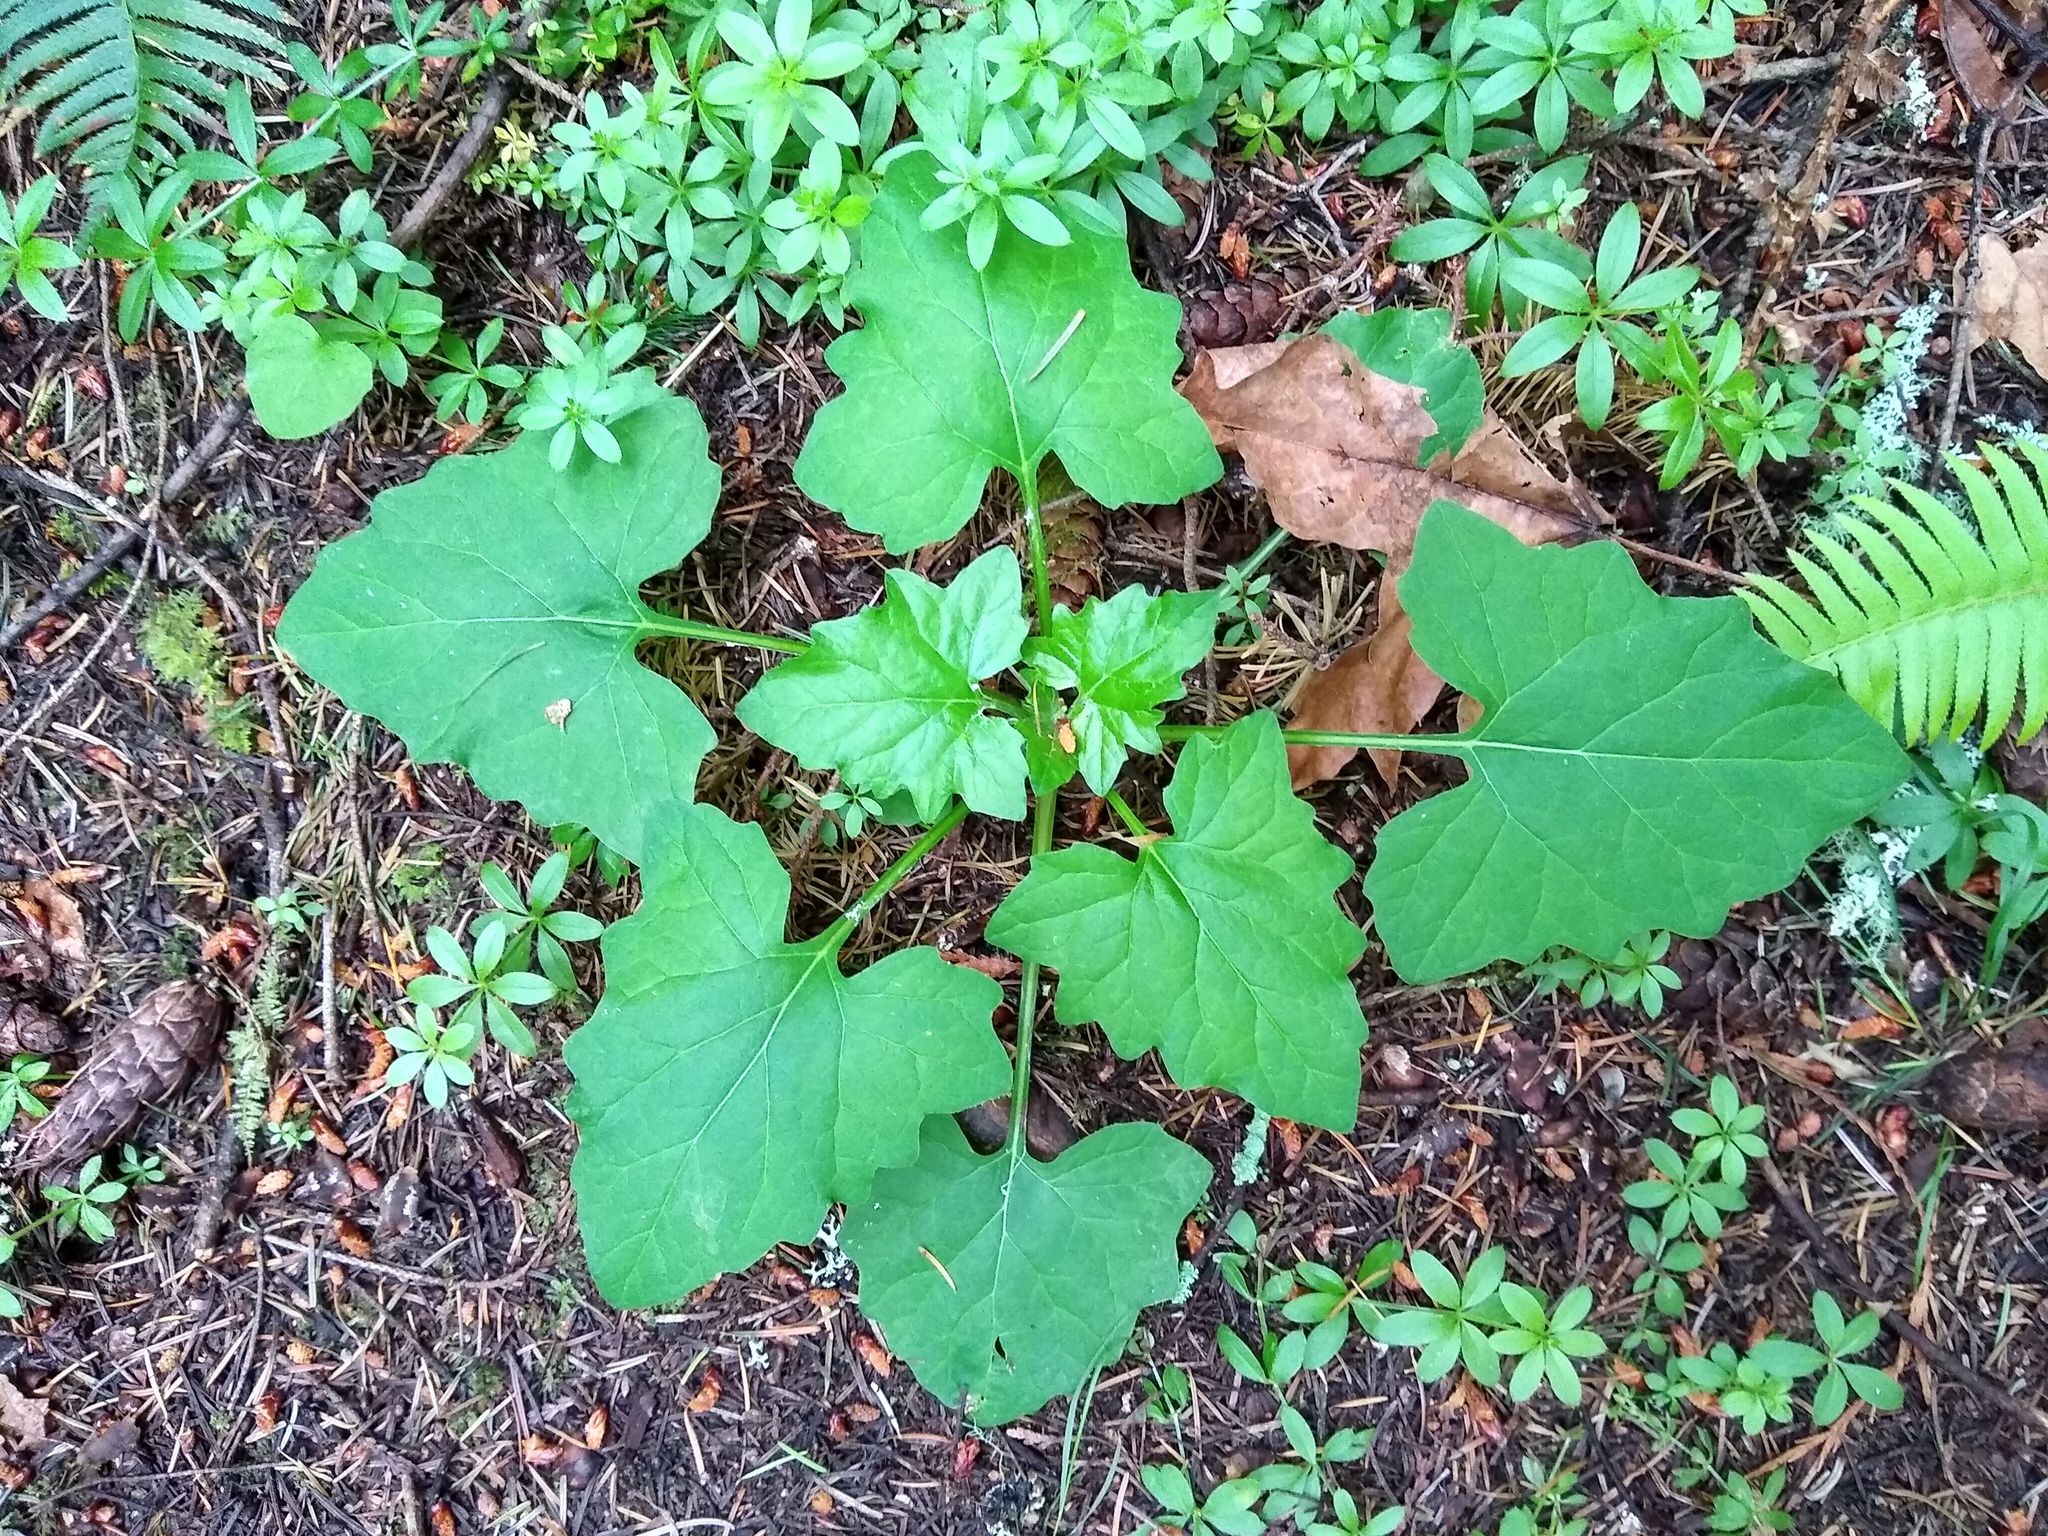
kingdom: Plantae
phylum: Tracheophyta
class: Magnoliopsida
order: Asterales
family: Asteraceae
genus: Adenocaulon
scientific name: Adenocaulon bicolor
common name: Trailplant
